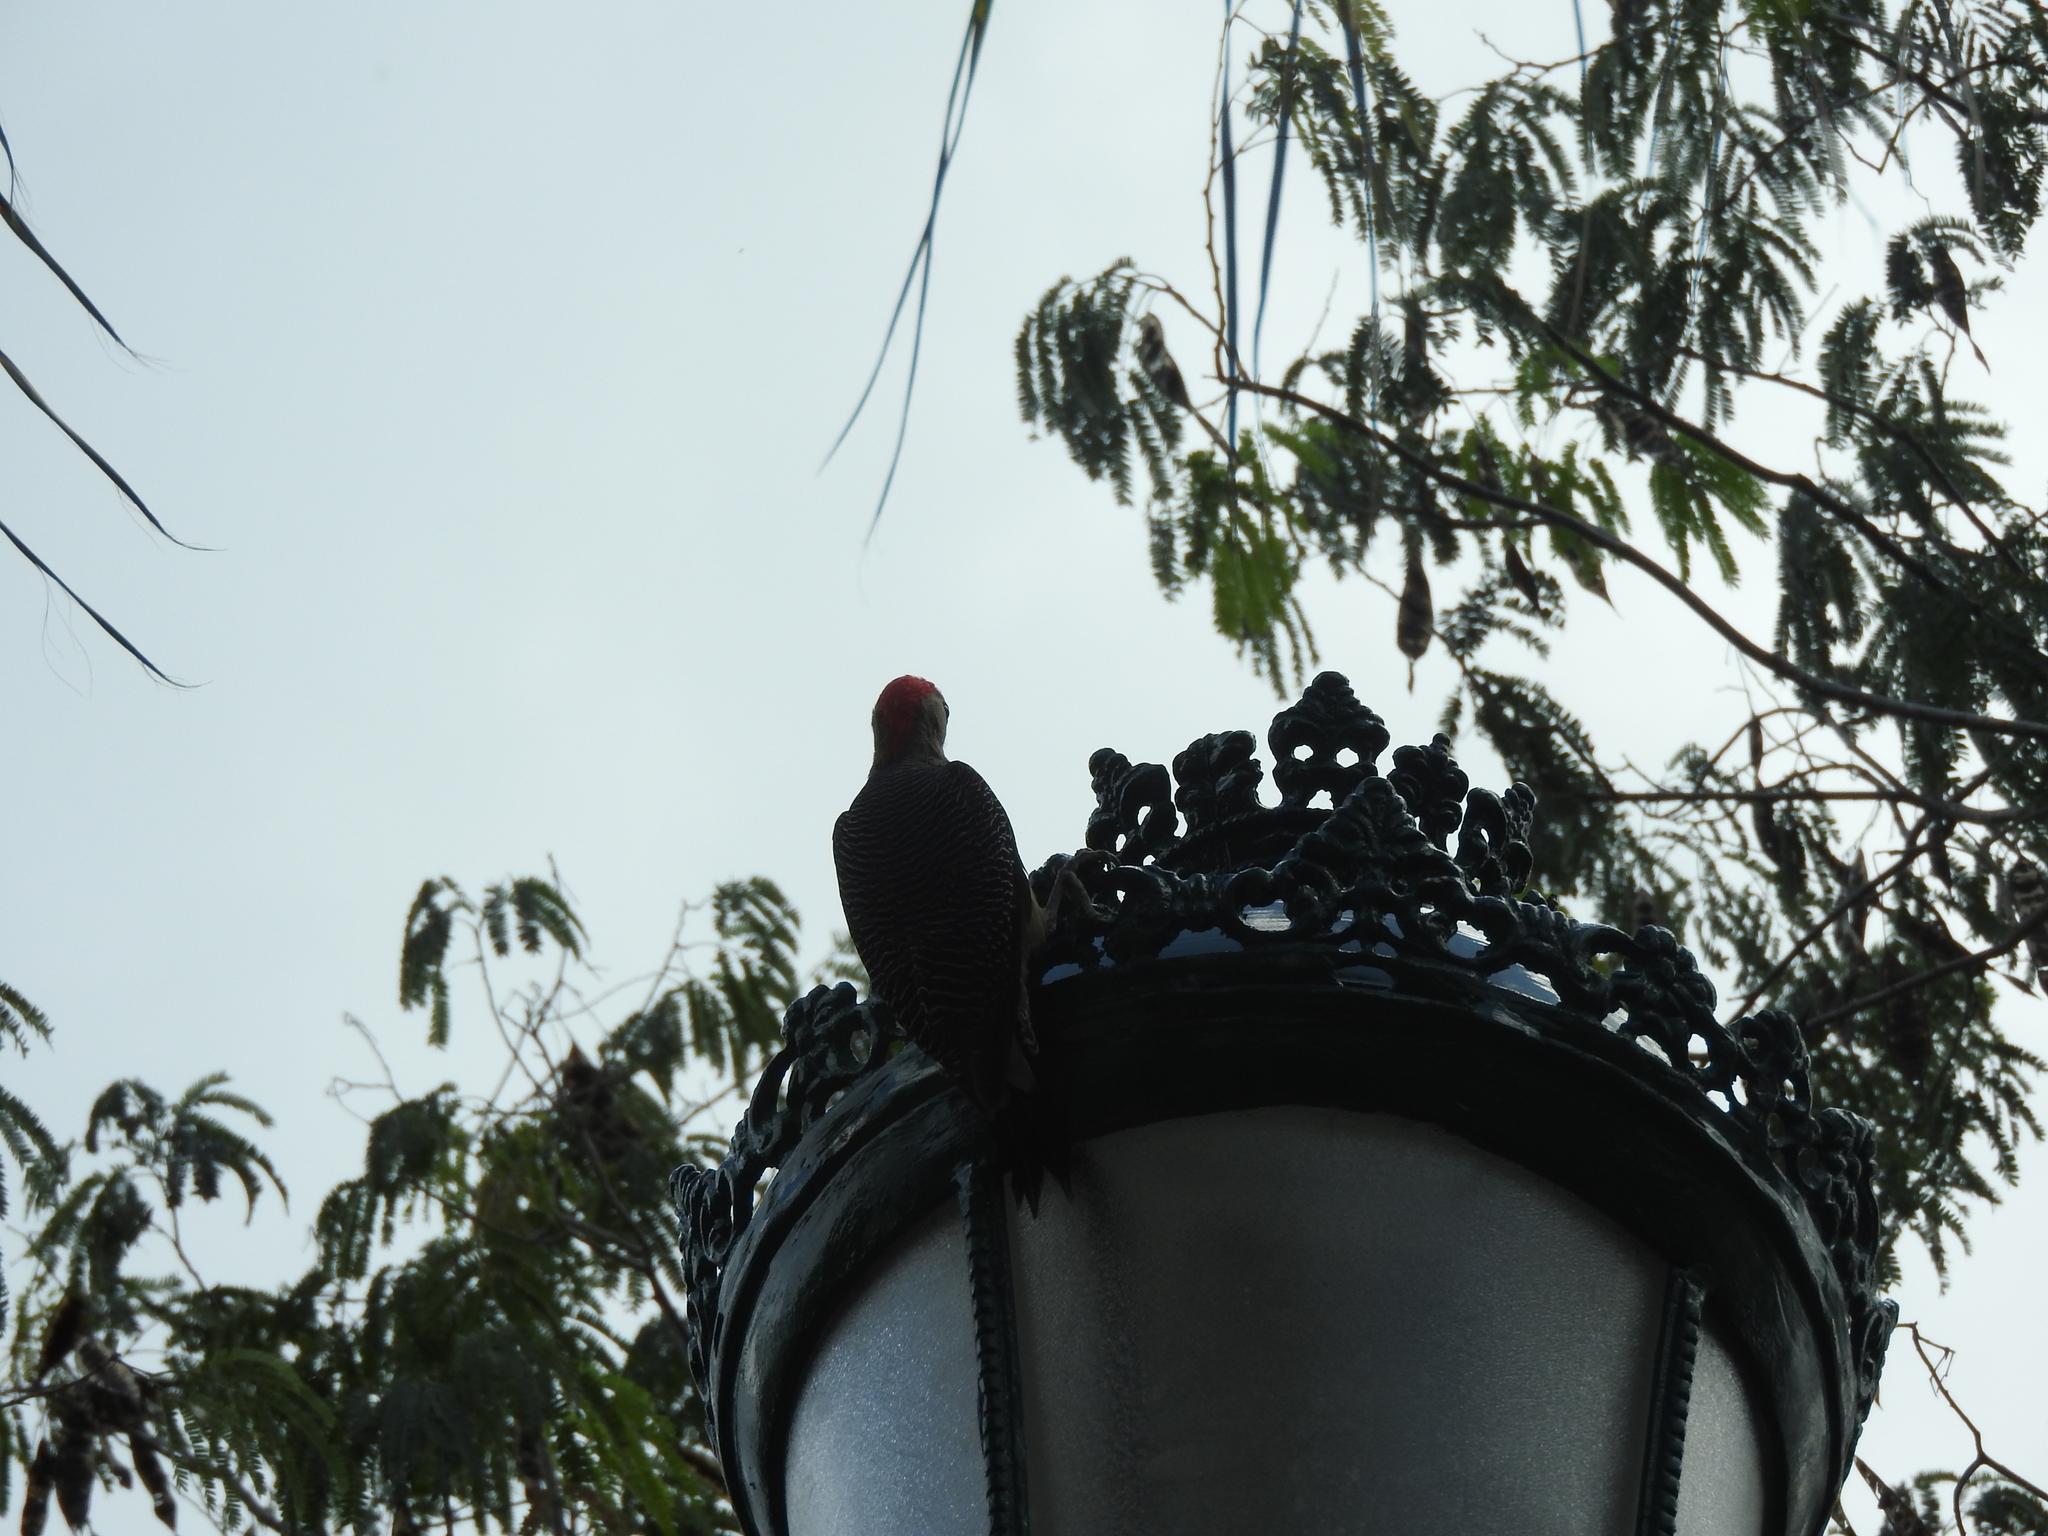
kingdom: Animalia
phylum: Chordata
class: Aves
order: Piciformes
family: Picidae
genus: Melanerpes
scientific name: Melanerpes santacruzi
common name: Velasquez's woodpecker
